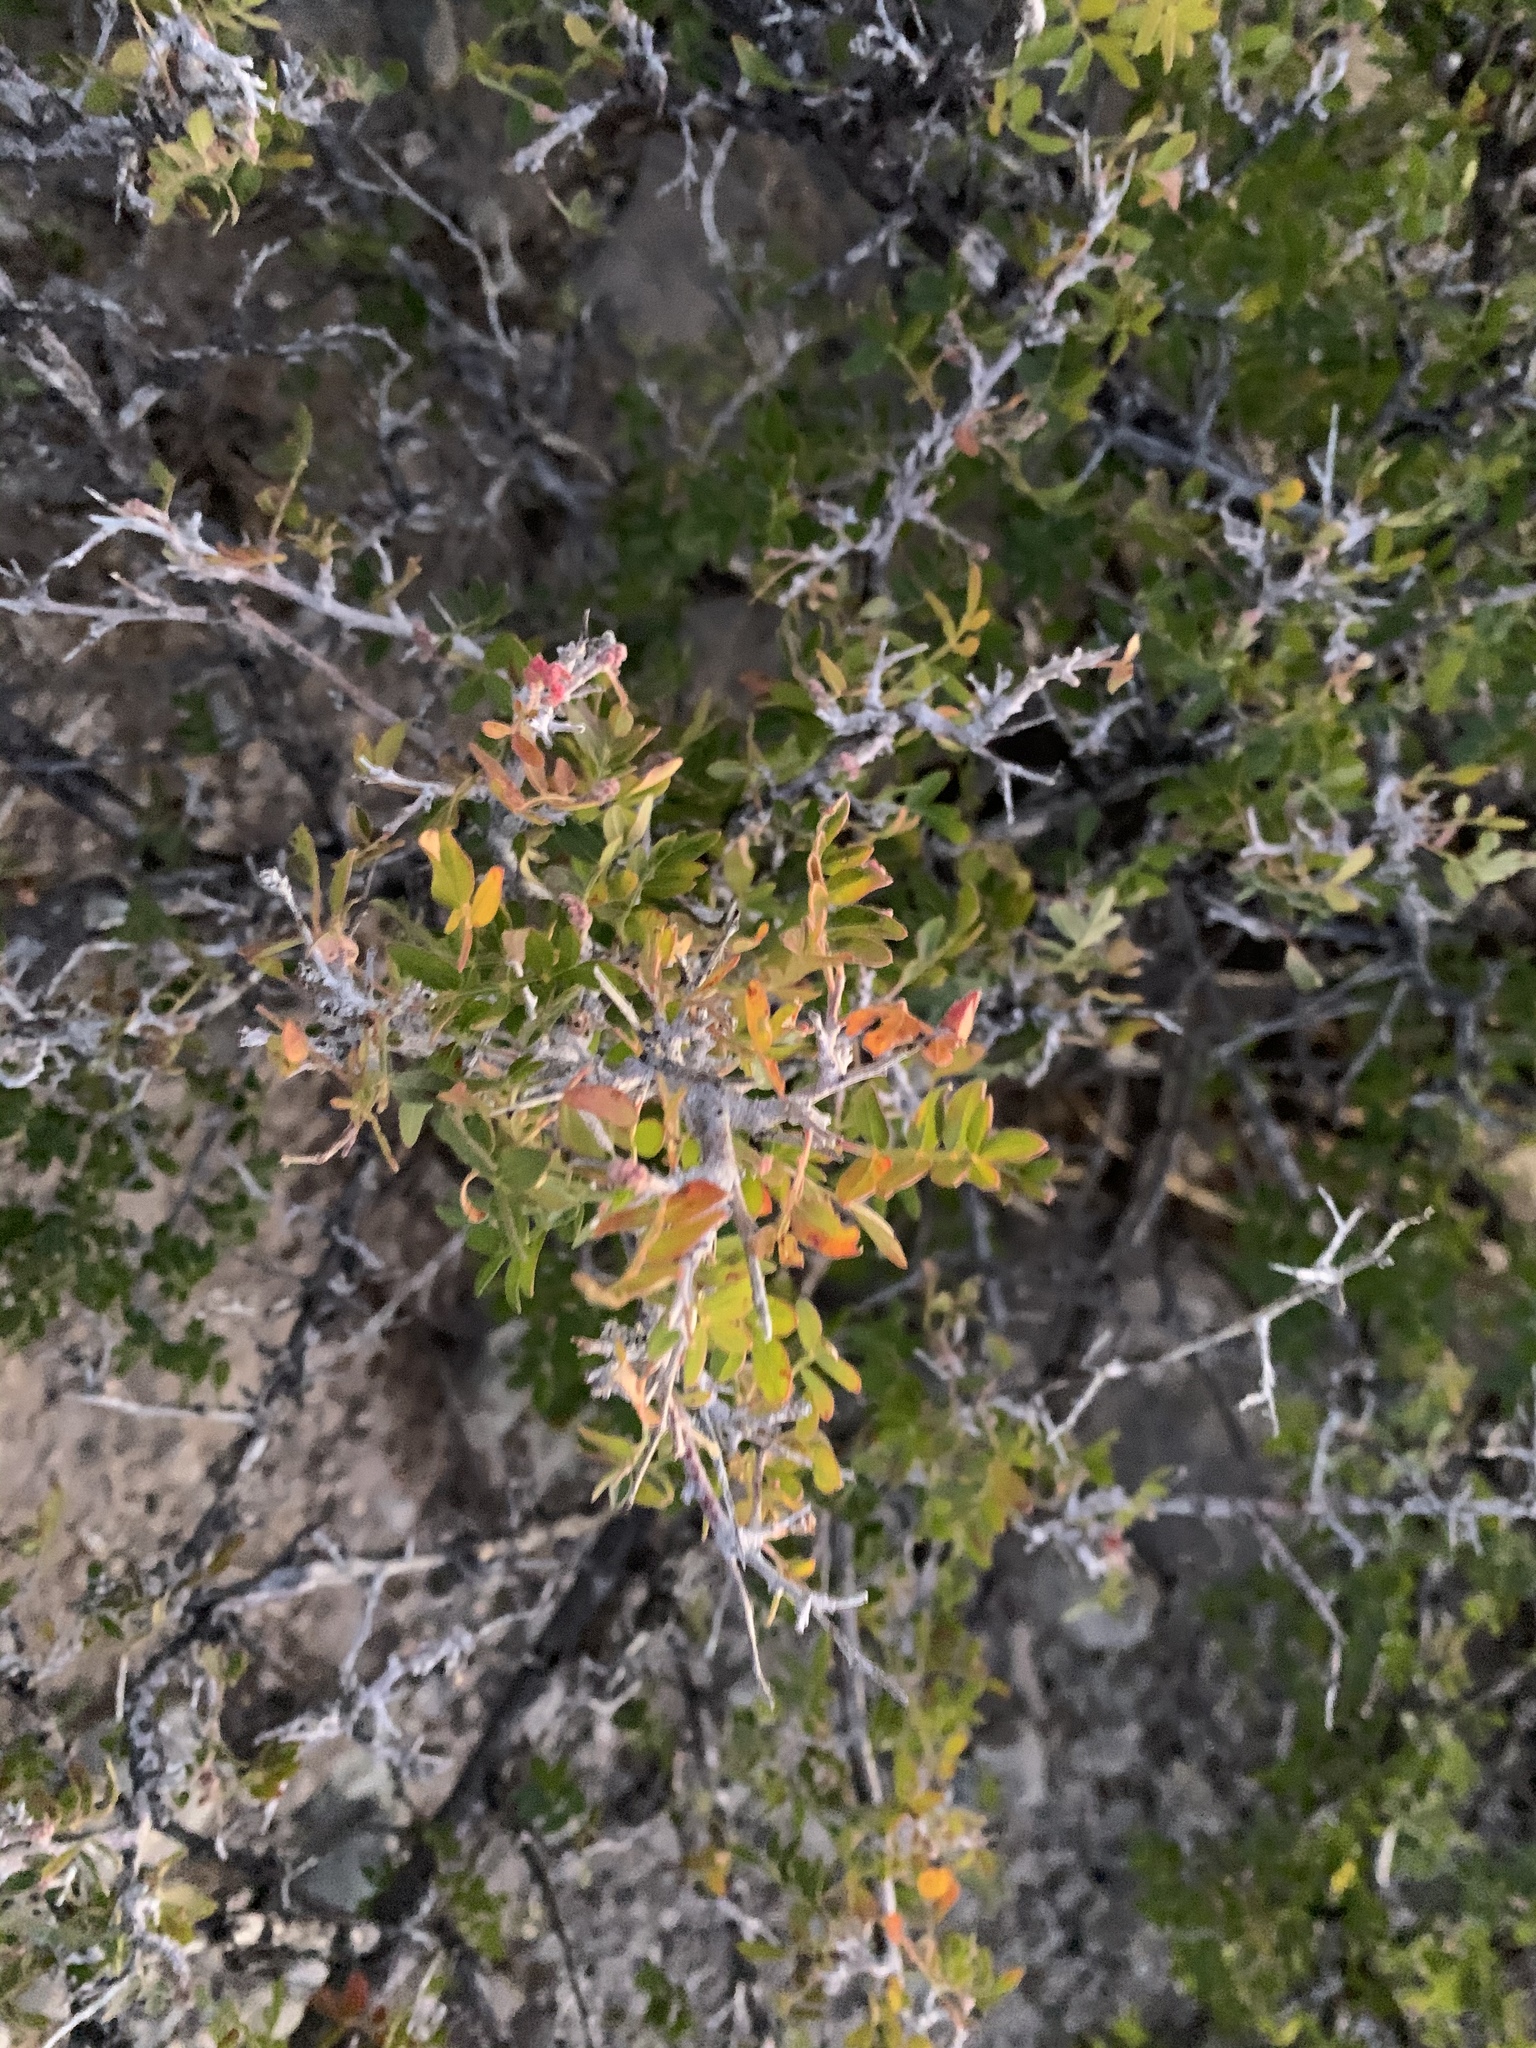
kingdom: Plantae
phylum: Tracheophyta
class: Magnoliopsida
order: Sapindales
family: Anacardiaceae
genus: Rhus
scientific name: Rhus microphylla
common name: Desert sumac
